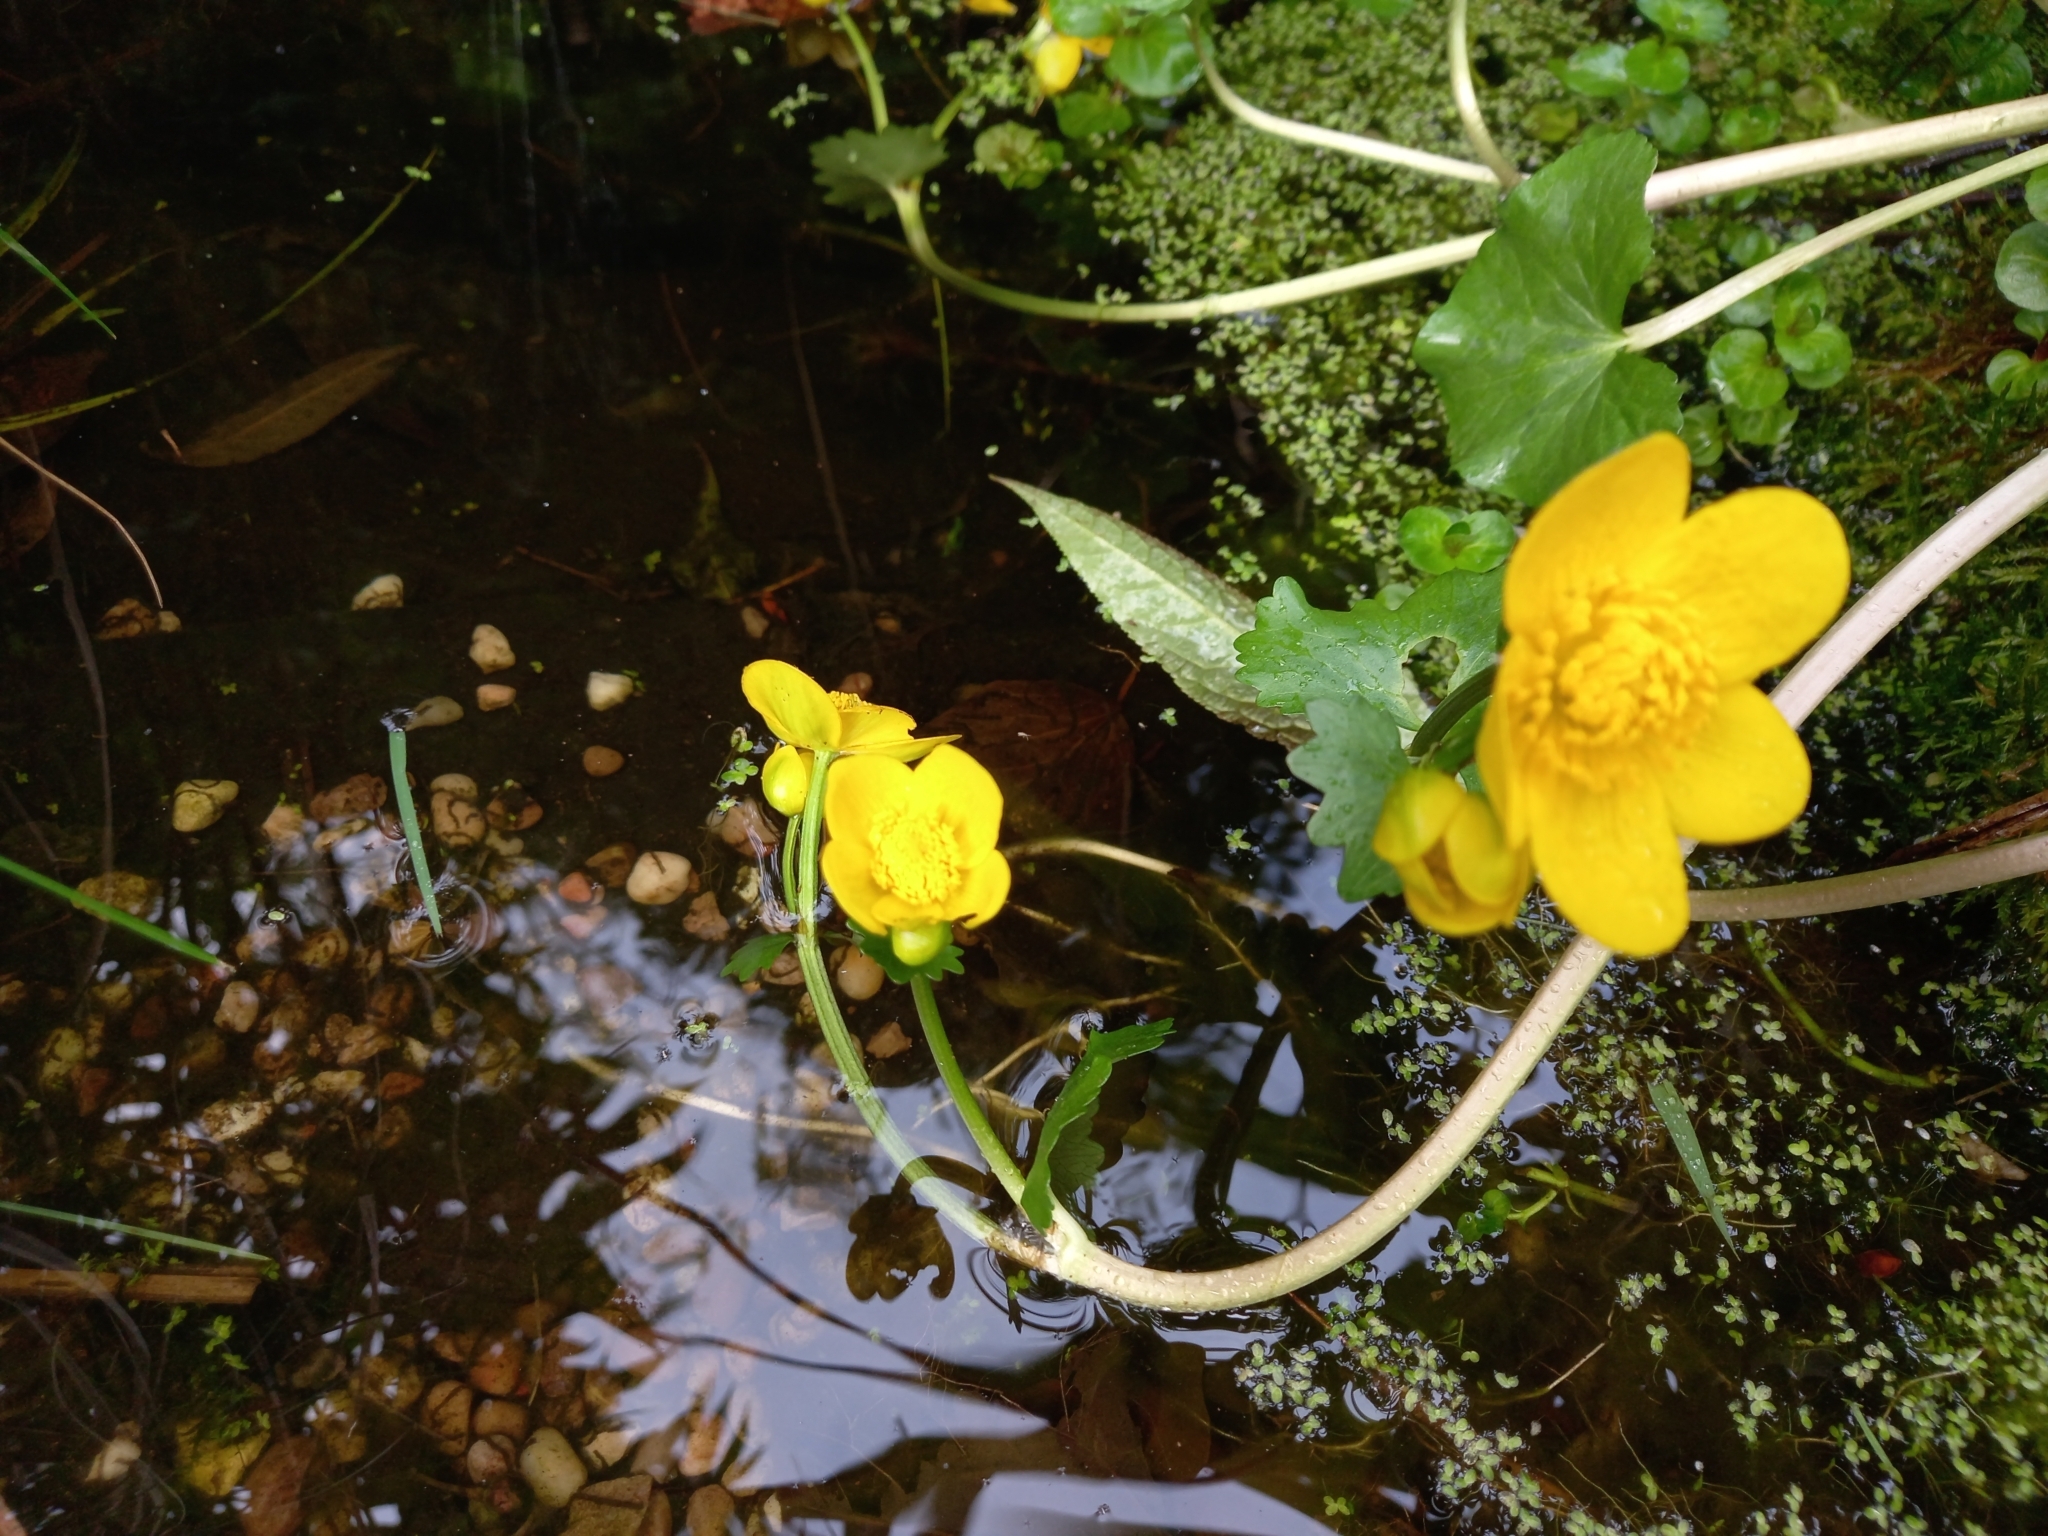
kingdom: Plantae
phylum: Tracheophyta
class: Magnoliopsida
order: Ranunculales
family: Ranunculaceae
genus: Caltha
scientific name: Caltha palustris
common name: Marsh marigold
